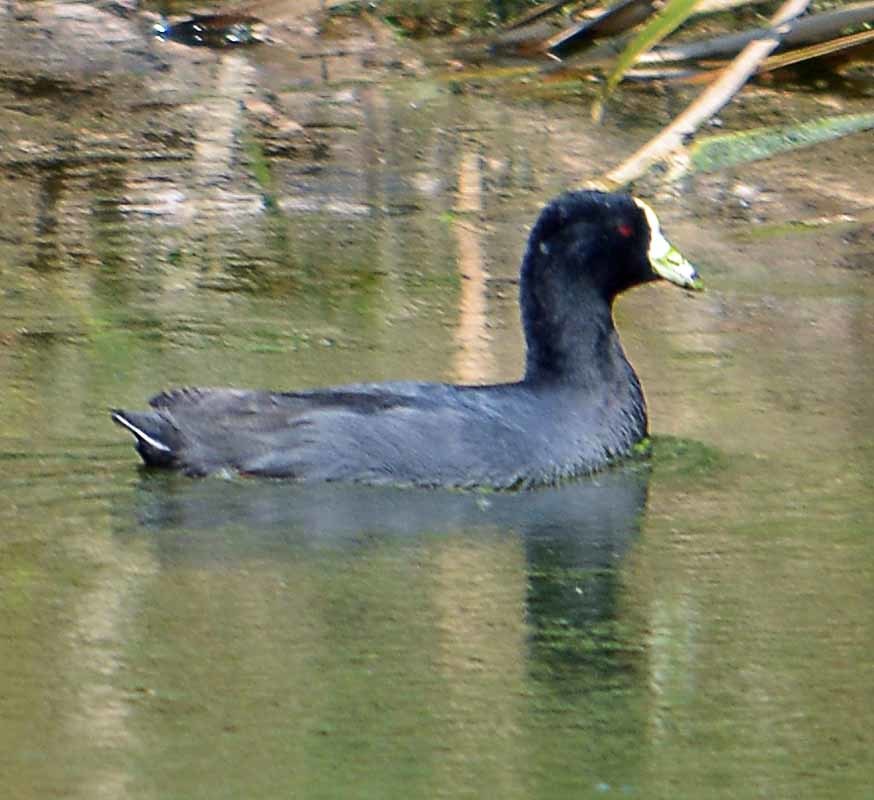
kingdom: Animalia
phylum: Chordata
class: Aves
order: Gruiformes
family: Rallidae
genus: Fulica
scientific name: Fulica americana
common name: American coot
